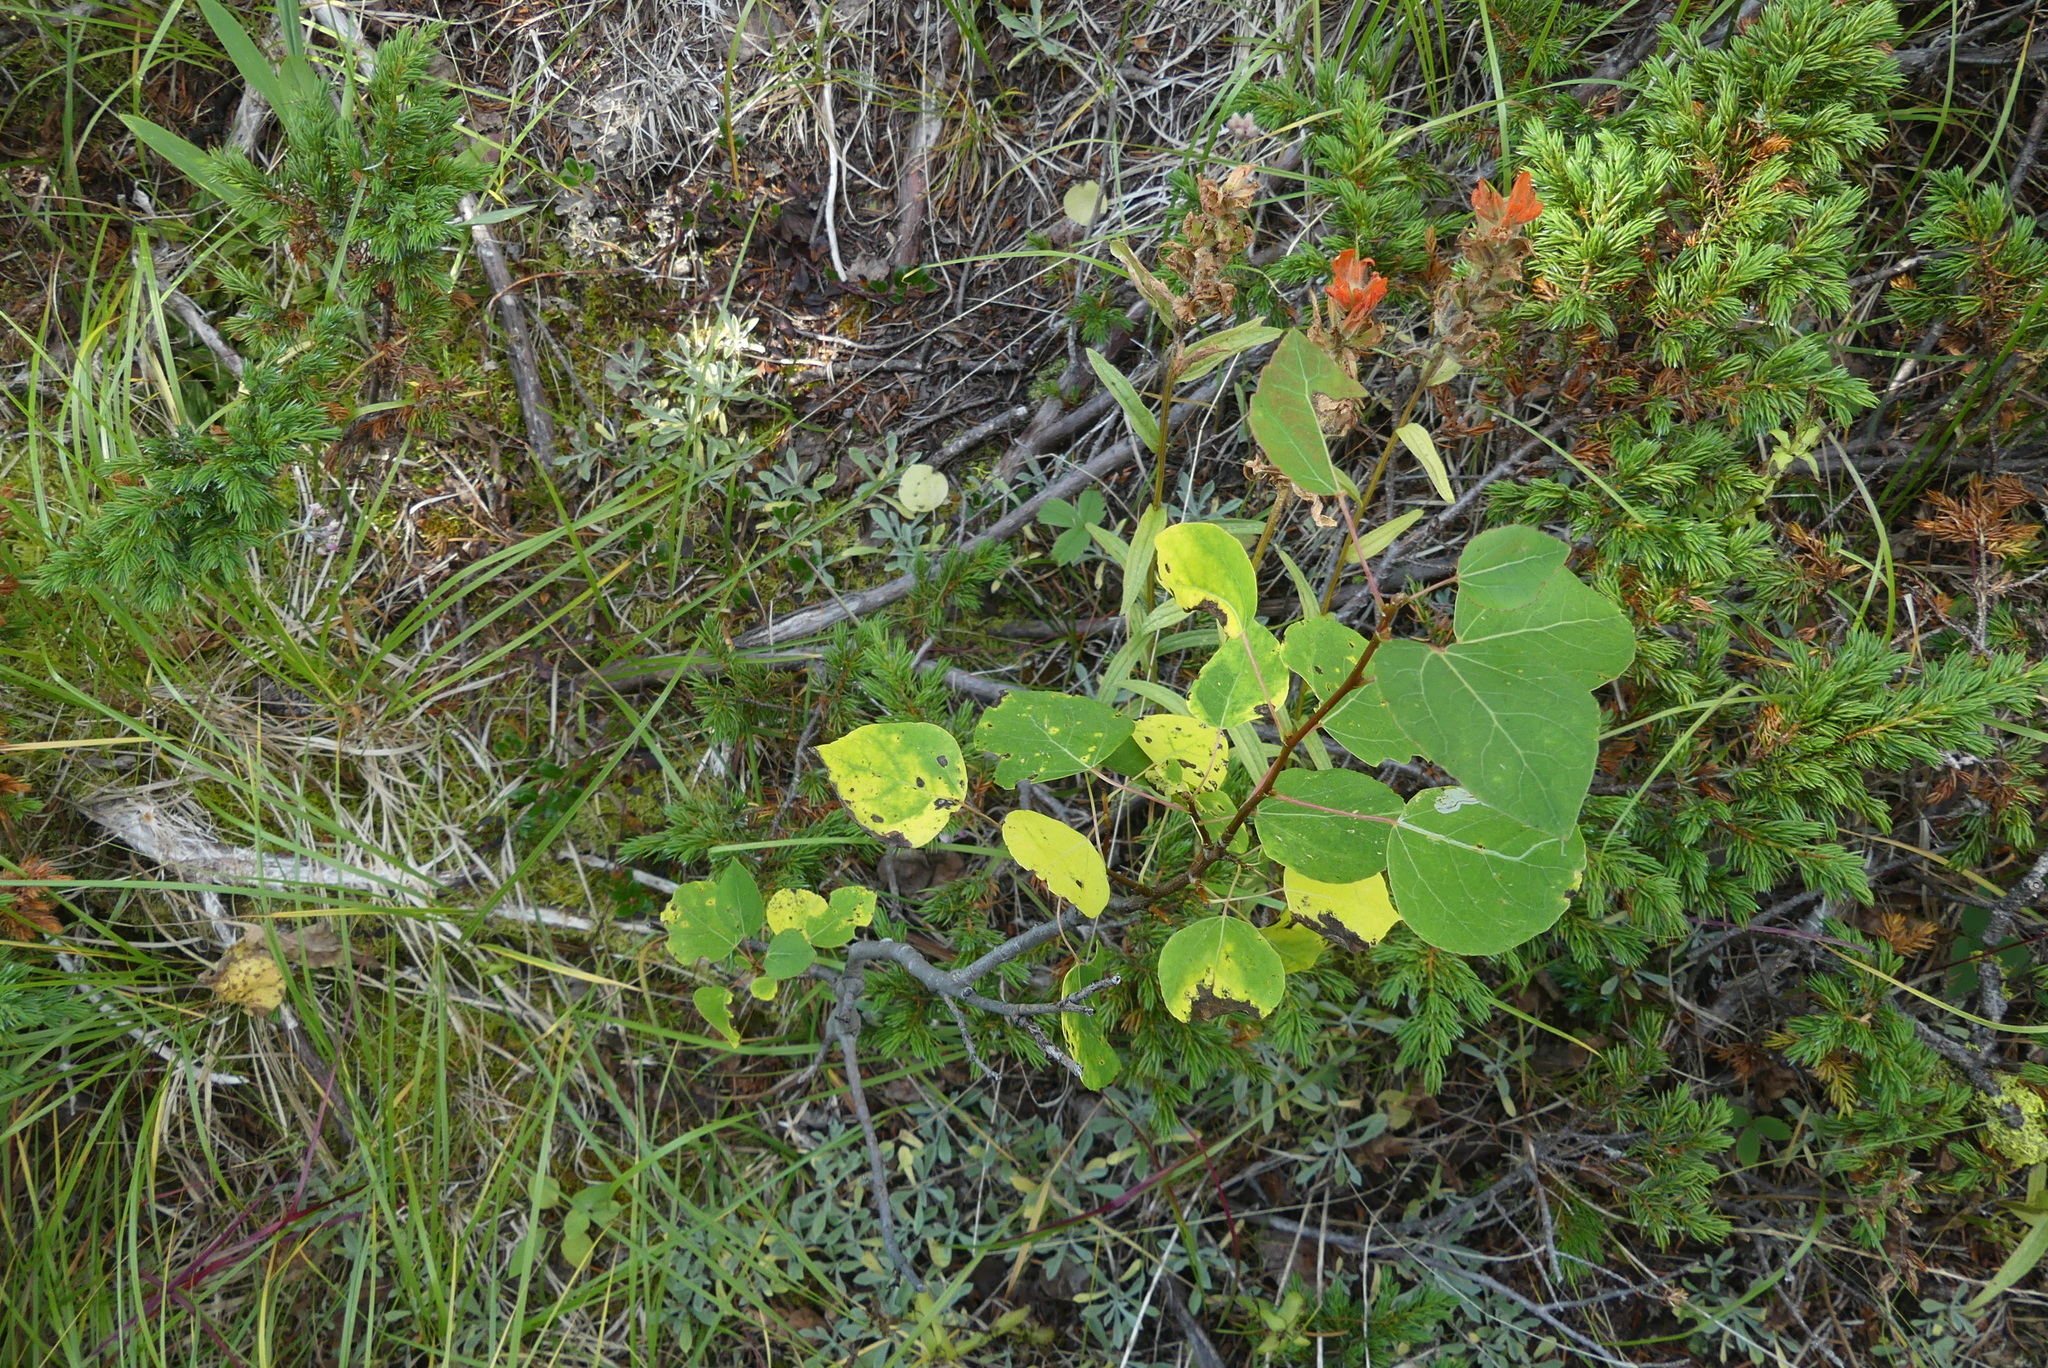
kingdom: Plantae
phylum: Tracheophyta
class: Magnoliopsida
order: Malpighiales
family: Salicaceae
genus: Populus
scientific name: Populus tremuloides
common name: Quaking aspen
